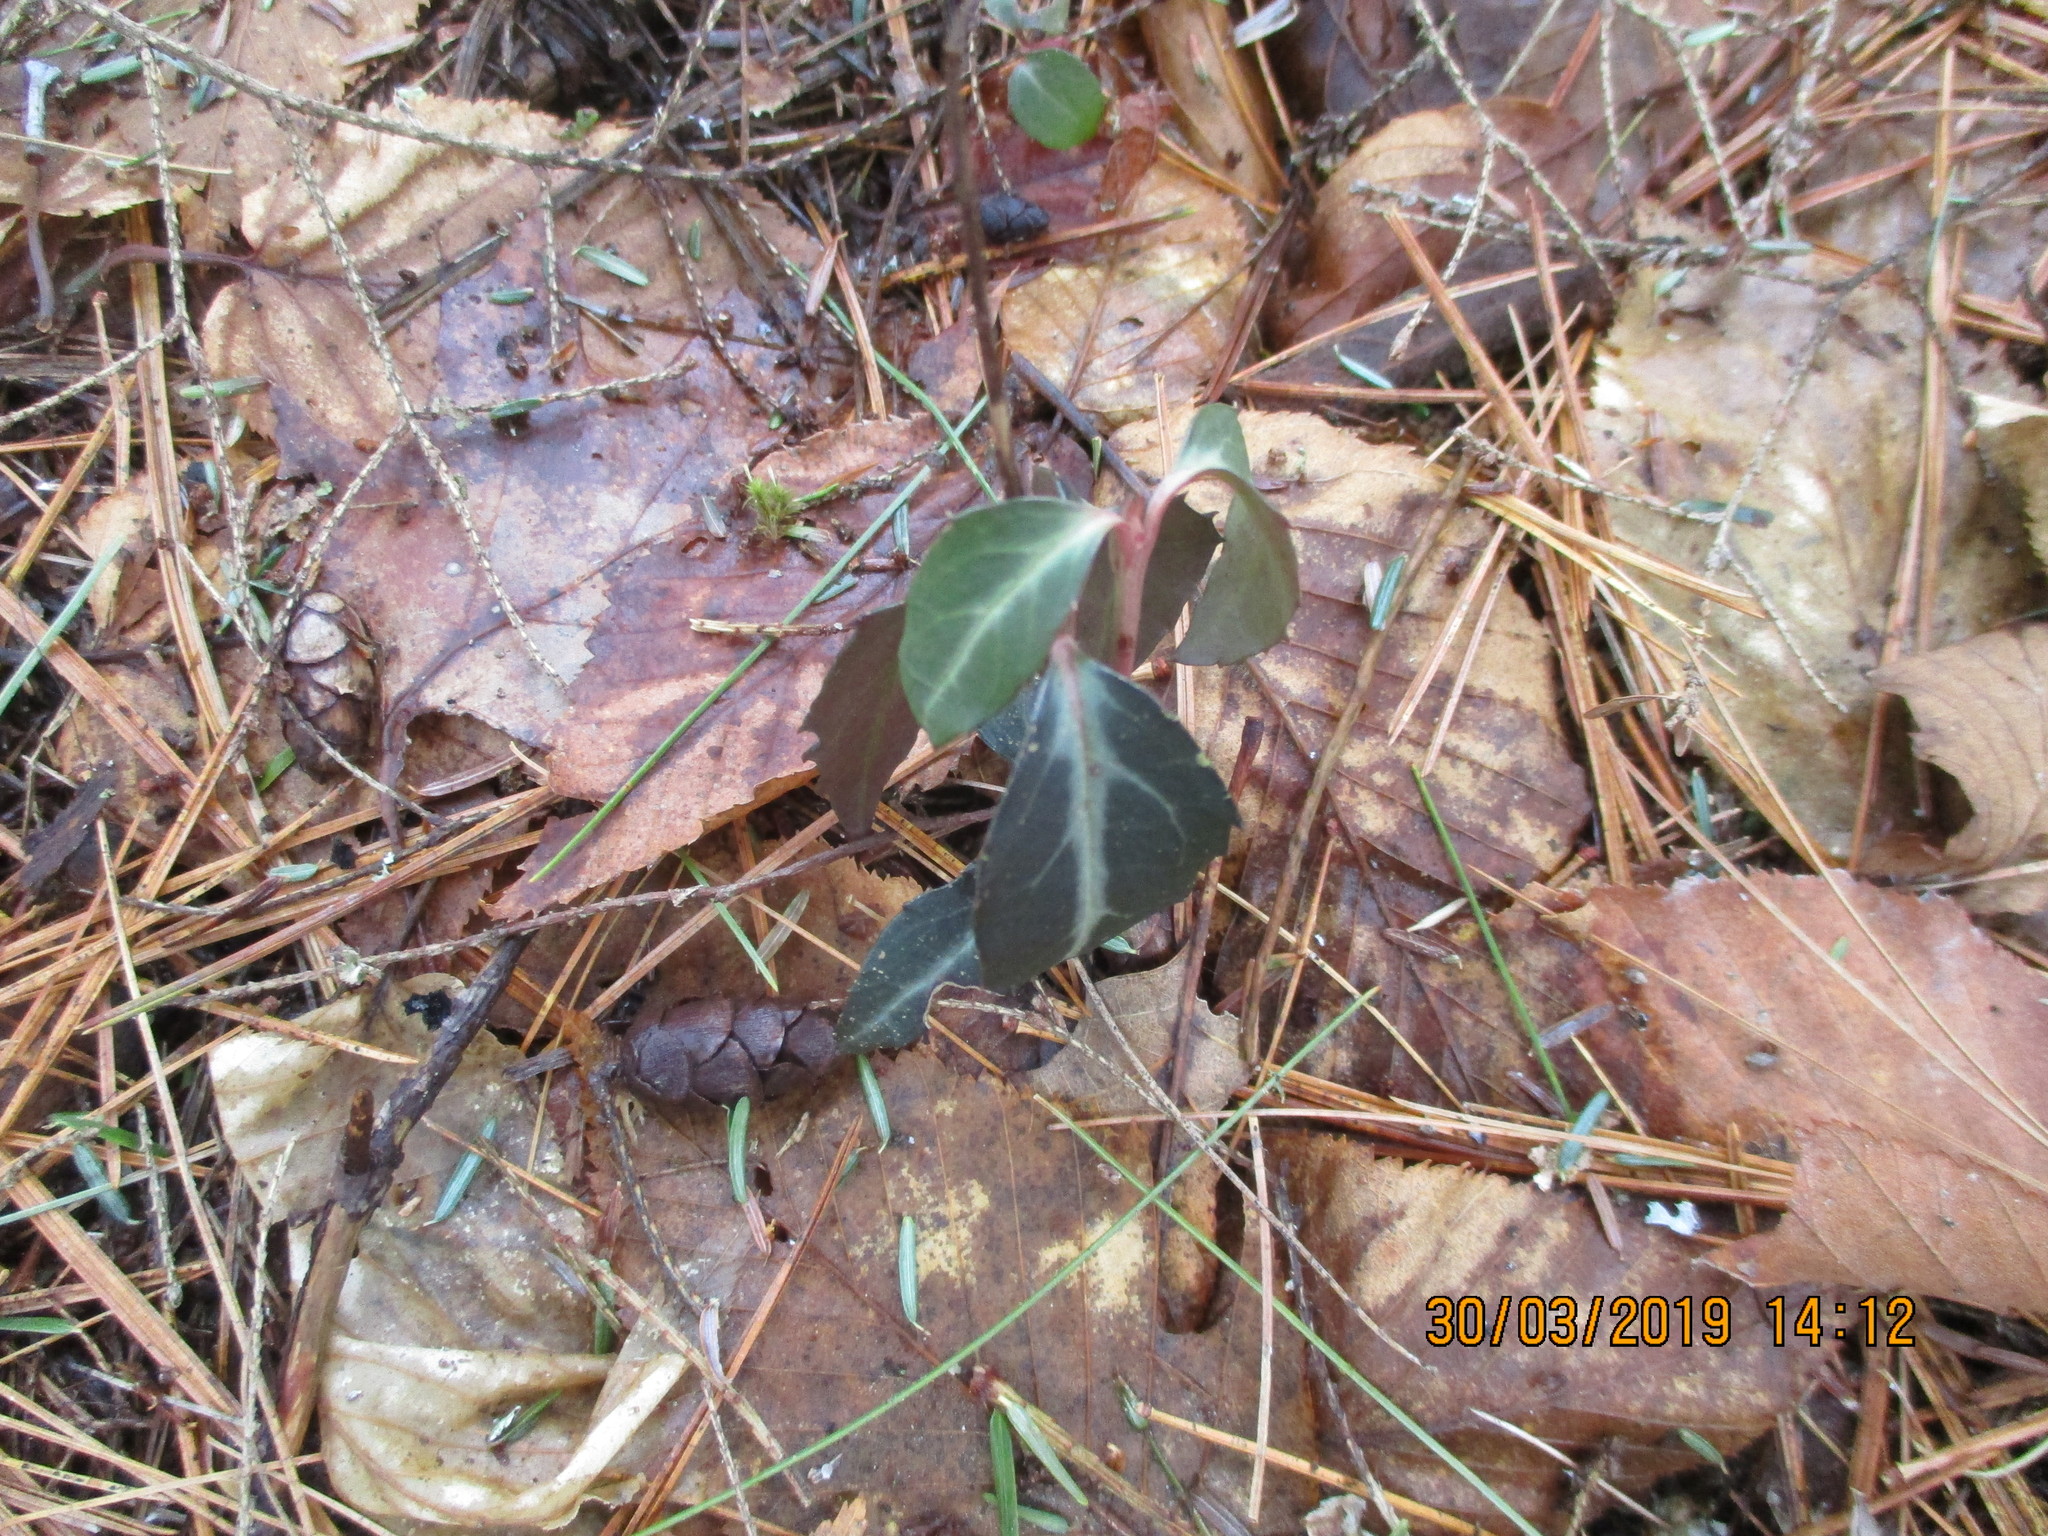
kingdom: Plantae
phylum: Tracheophyta
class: Magnoliopsida
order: Ericales
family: Ericaceae
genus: Chimaphila
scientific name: Chimaphila maculata
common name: Spotted pipsissewa
